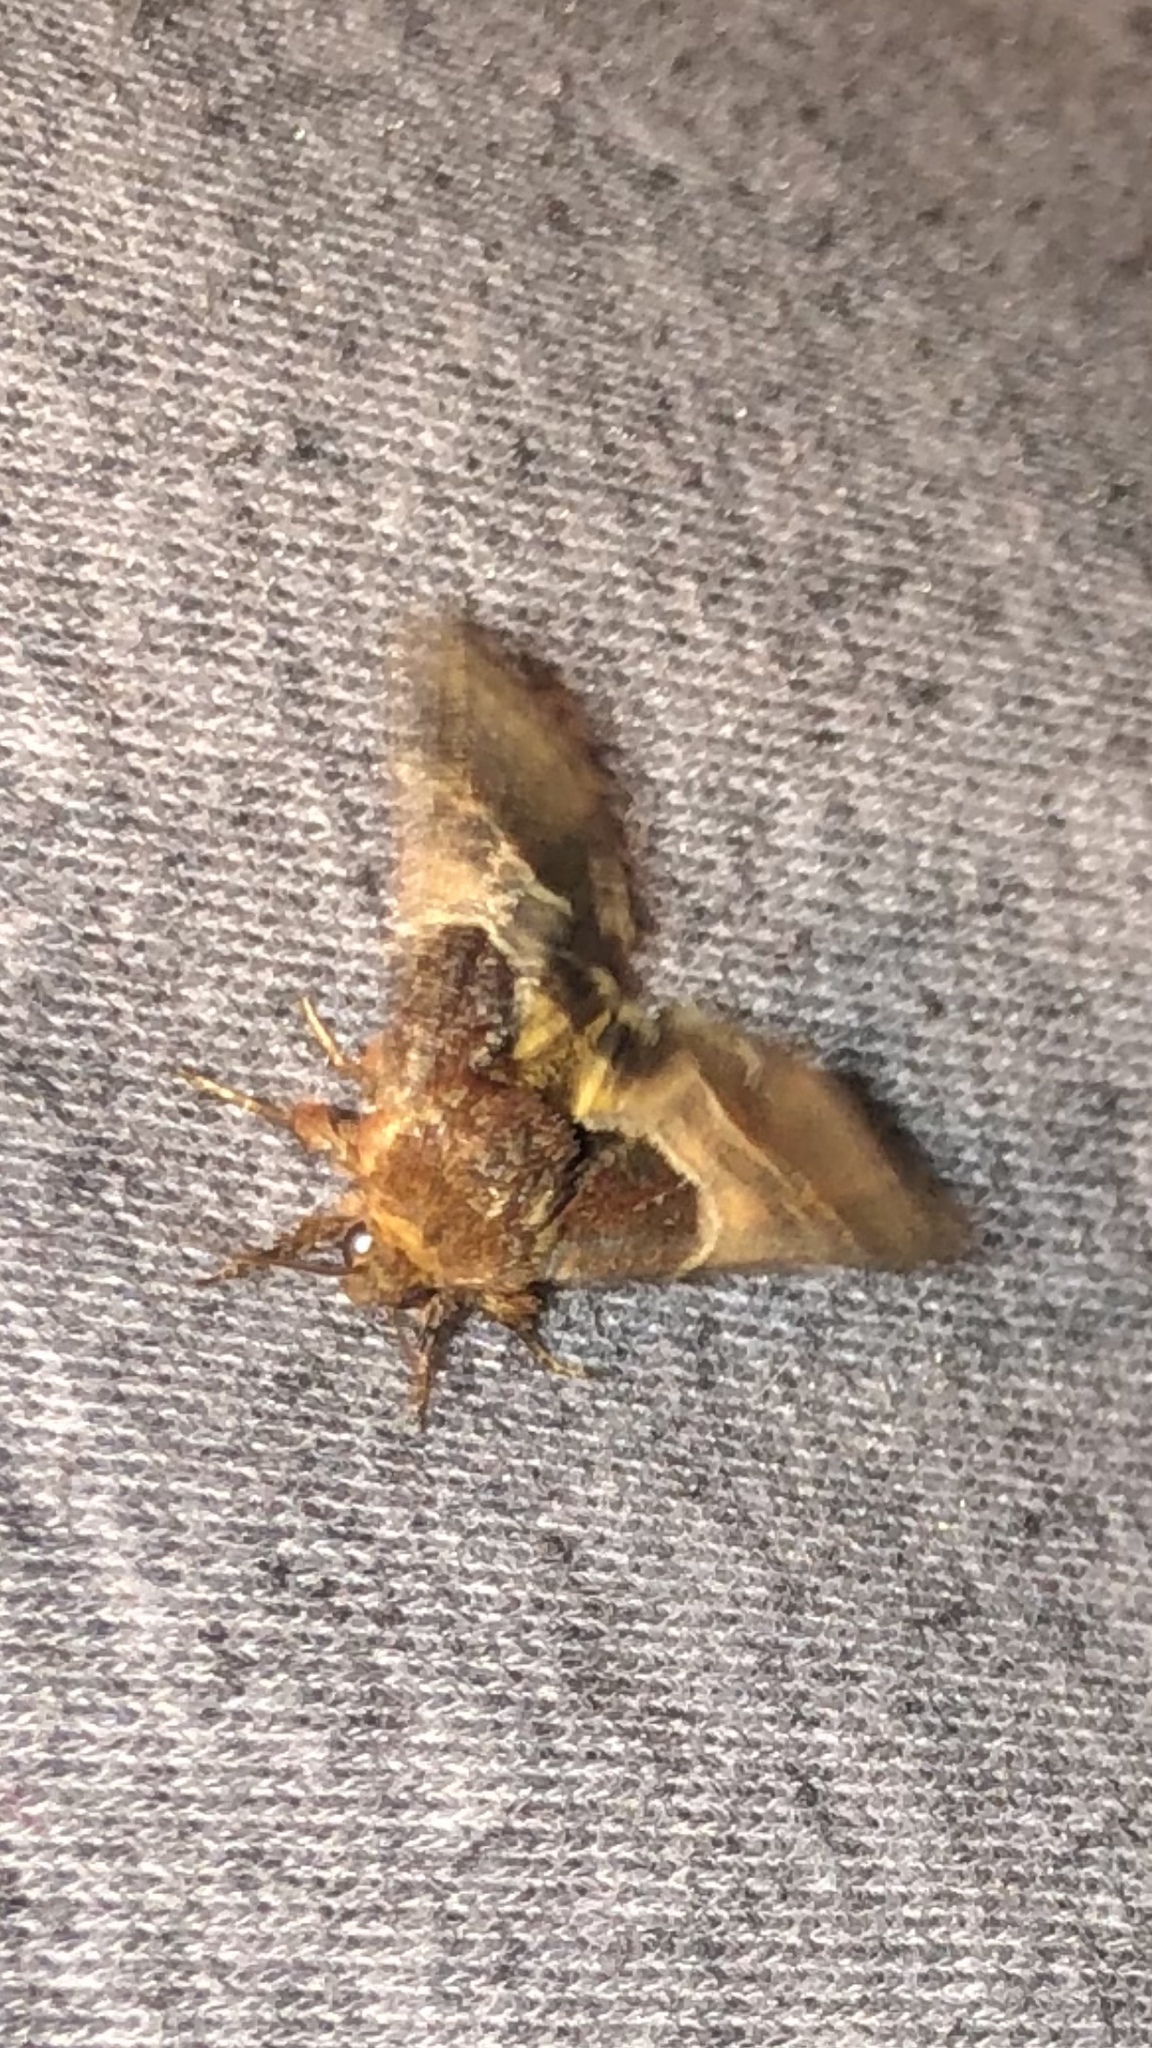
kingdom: Animalia
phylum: Arthropoda
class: Insecta
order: Lepidoptera
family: Noctuidae
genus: Schinia
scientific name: Schinia arcigera
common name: Arcigera flower moth
